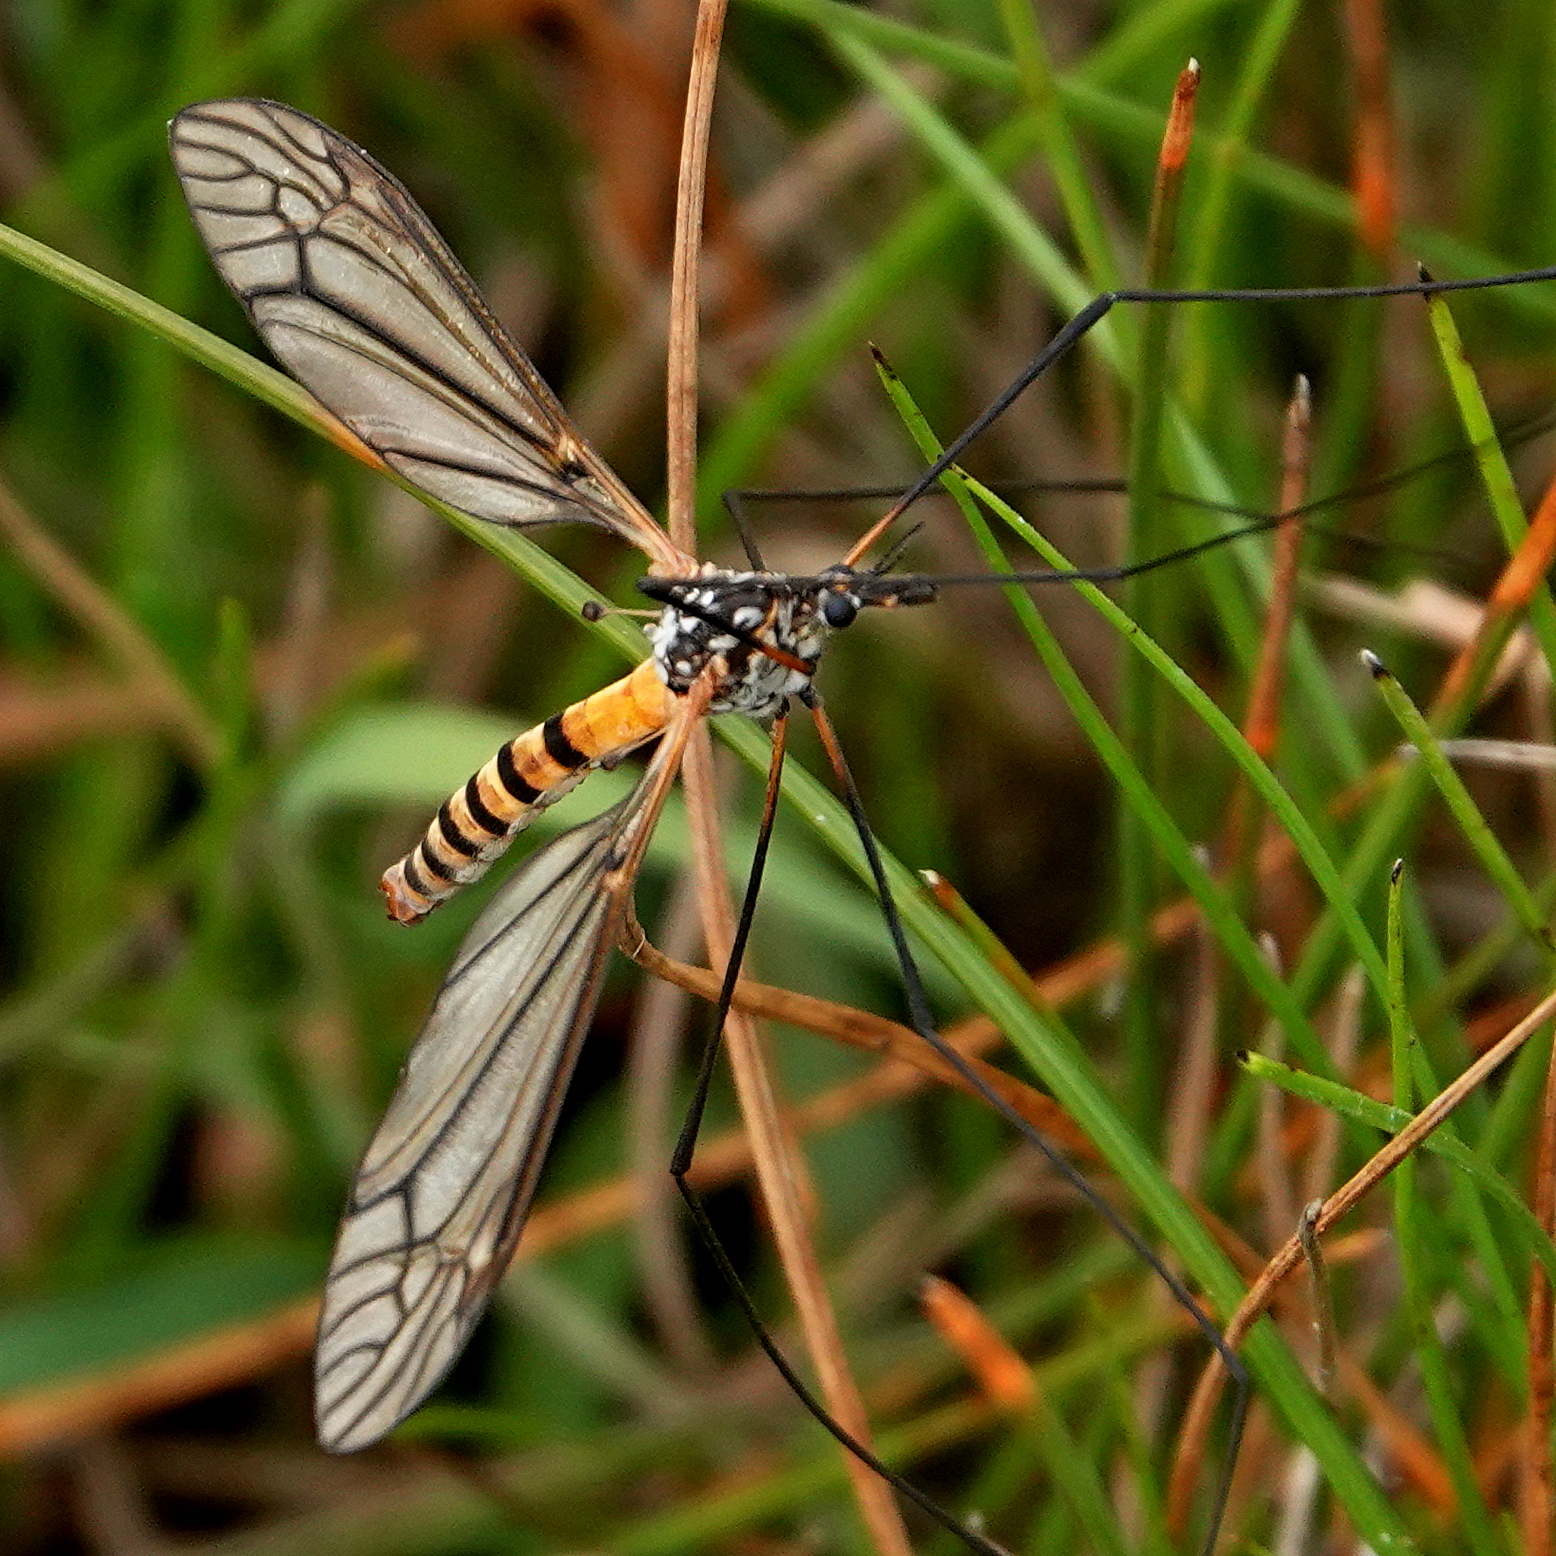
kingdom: Animalia
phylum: Arthropoda
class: Insecta
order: Diptera
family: Tipulidae
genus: Ischnotoma
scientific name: Ischnotoma rubriventris
